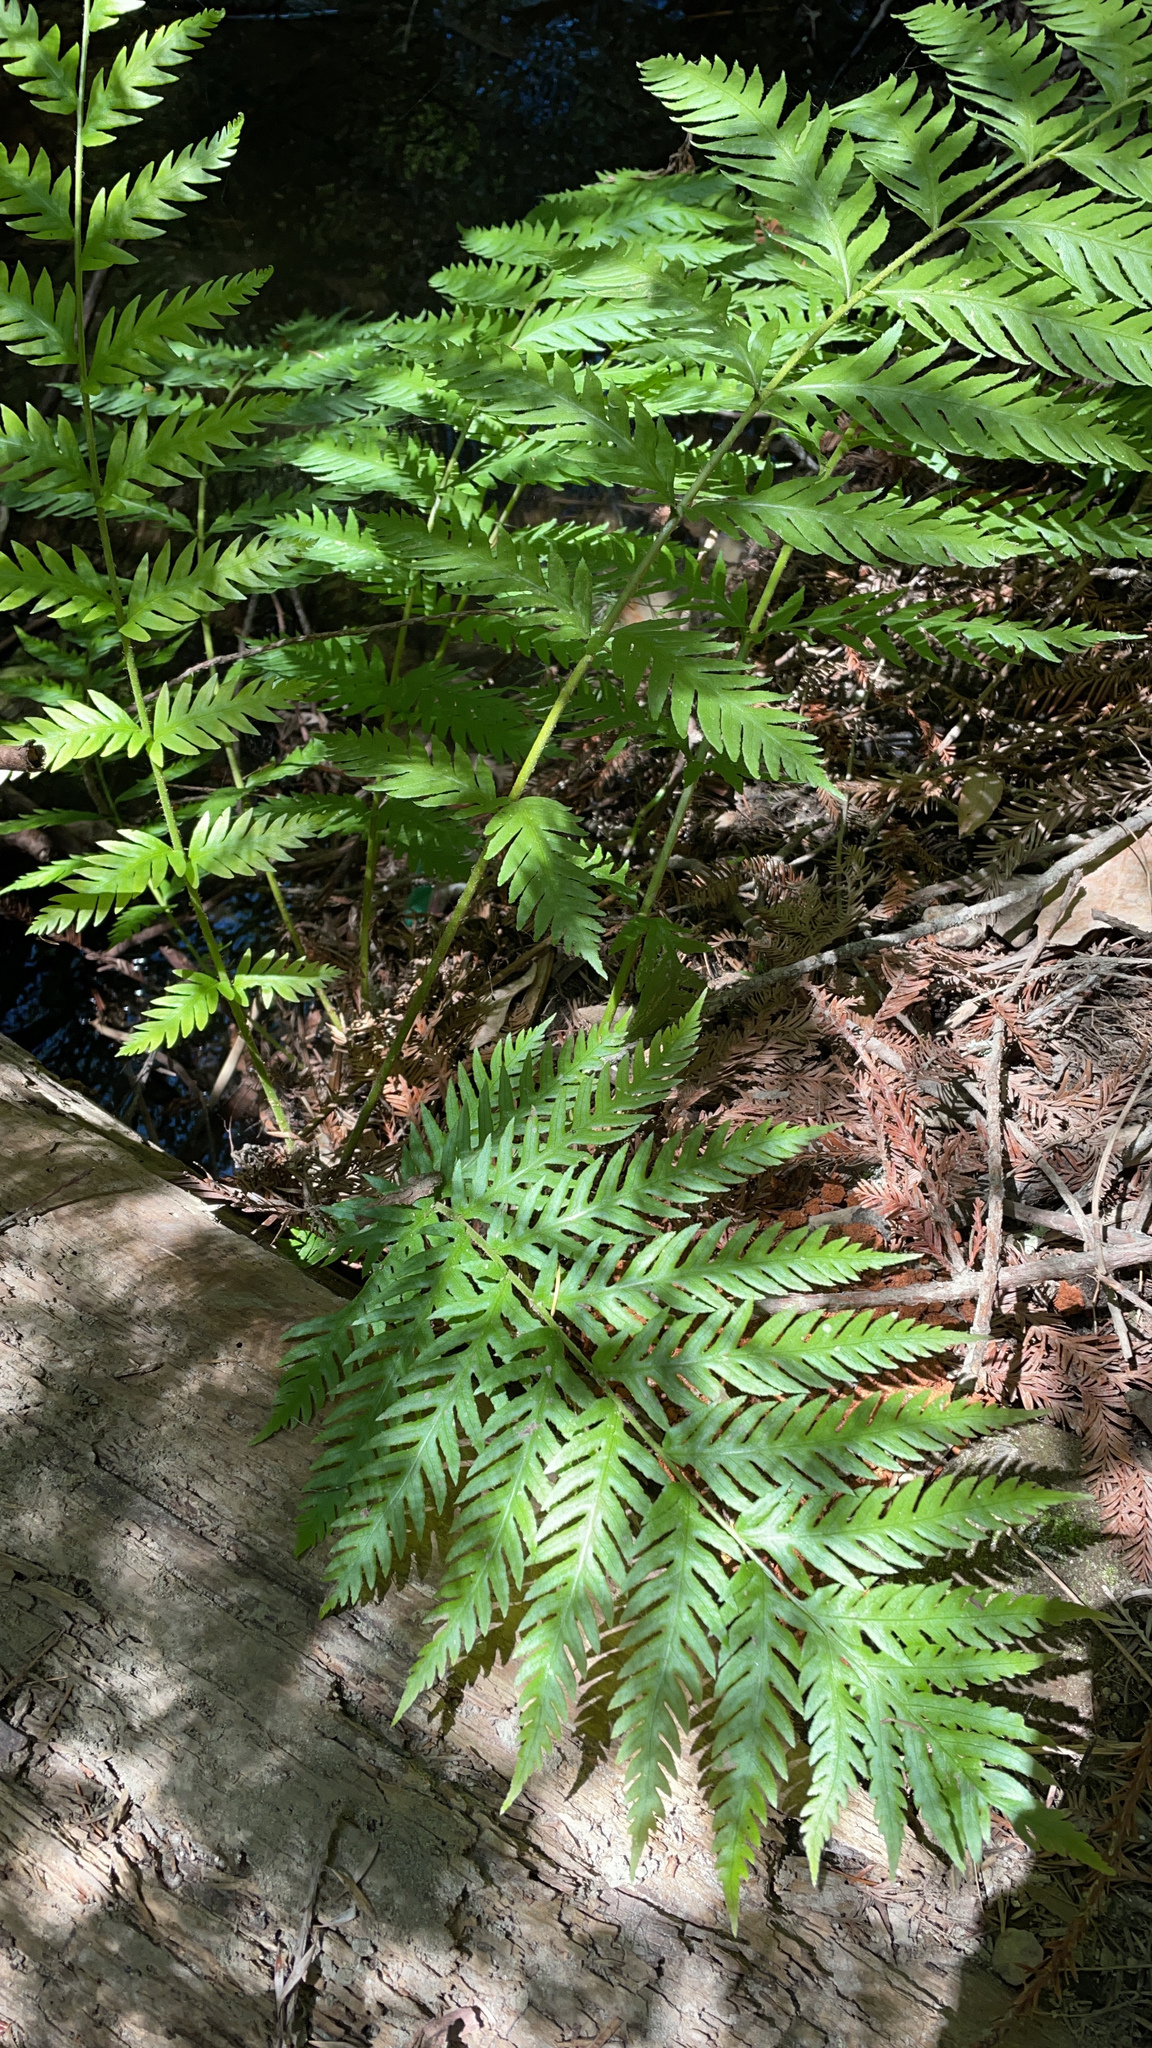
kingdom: Plantae
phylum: Tracheophyta
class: Polypodiopsida
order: Polypodiales
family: Blechnaceae
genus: Woodwardia
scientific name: Woodwardia fimbriata
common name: Giant chain fern
